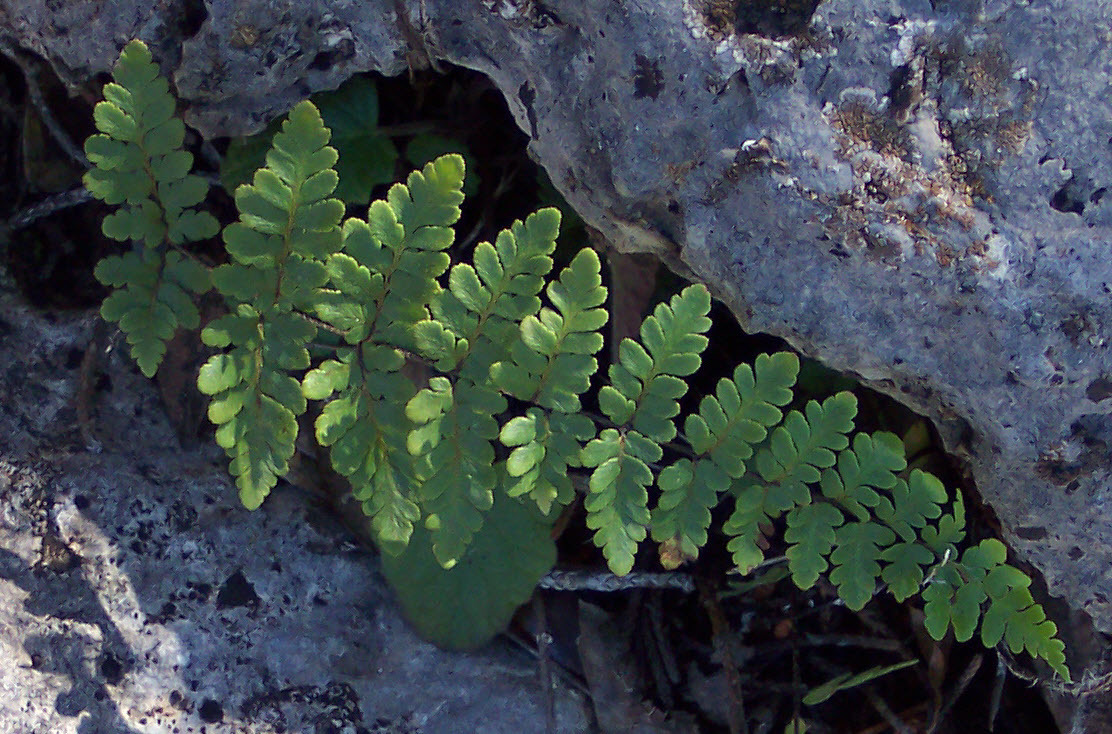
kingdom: Plantae
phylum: Tracheophyta
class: Polypodiopsida
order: Polypodiales
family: Pteridaceae
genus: Myriopteris
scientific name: Myriopteris alabamensis
